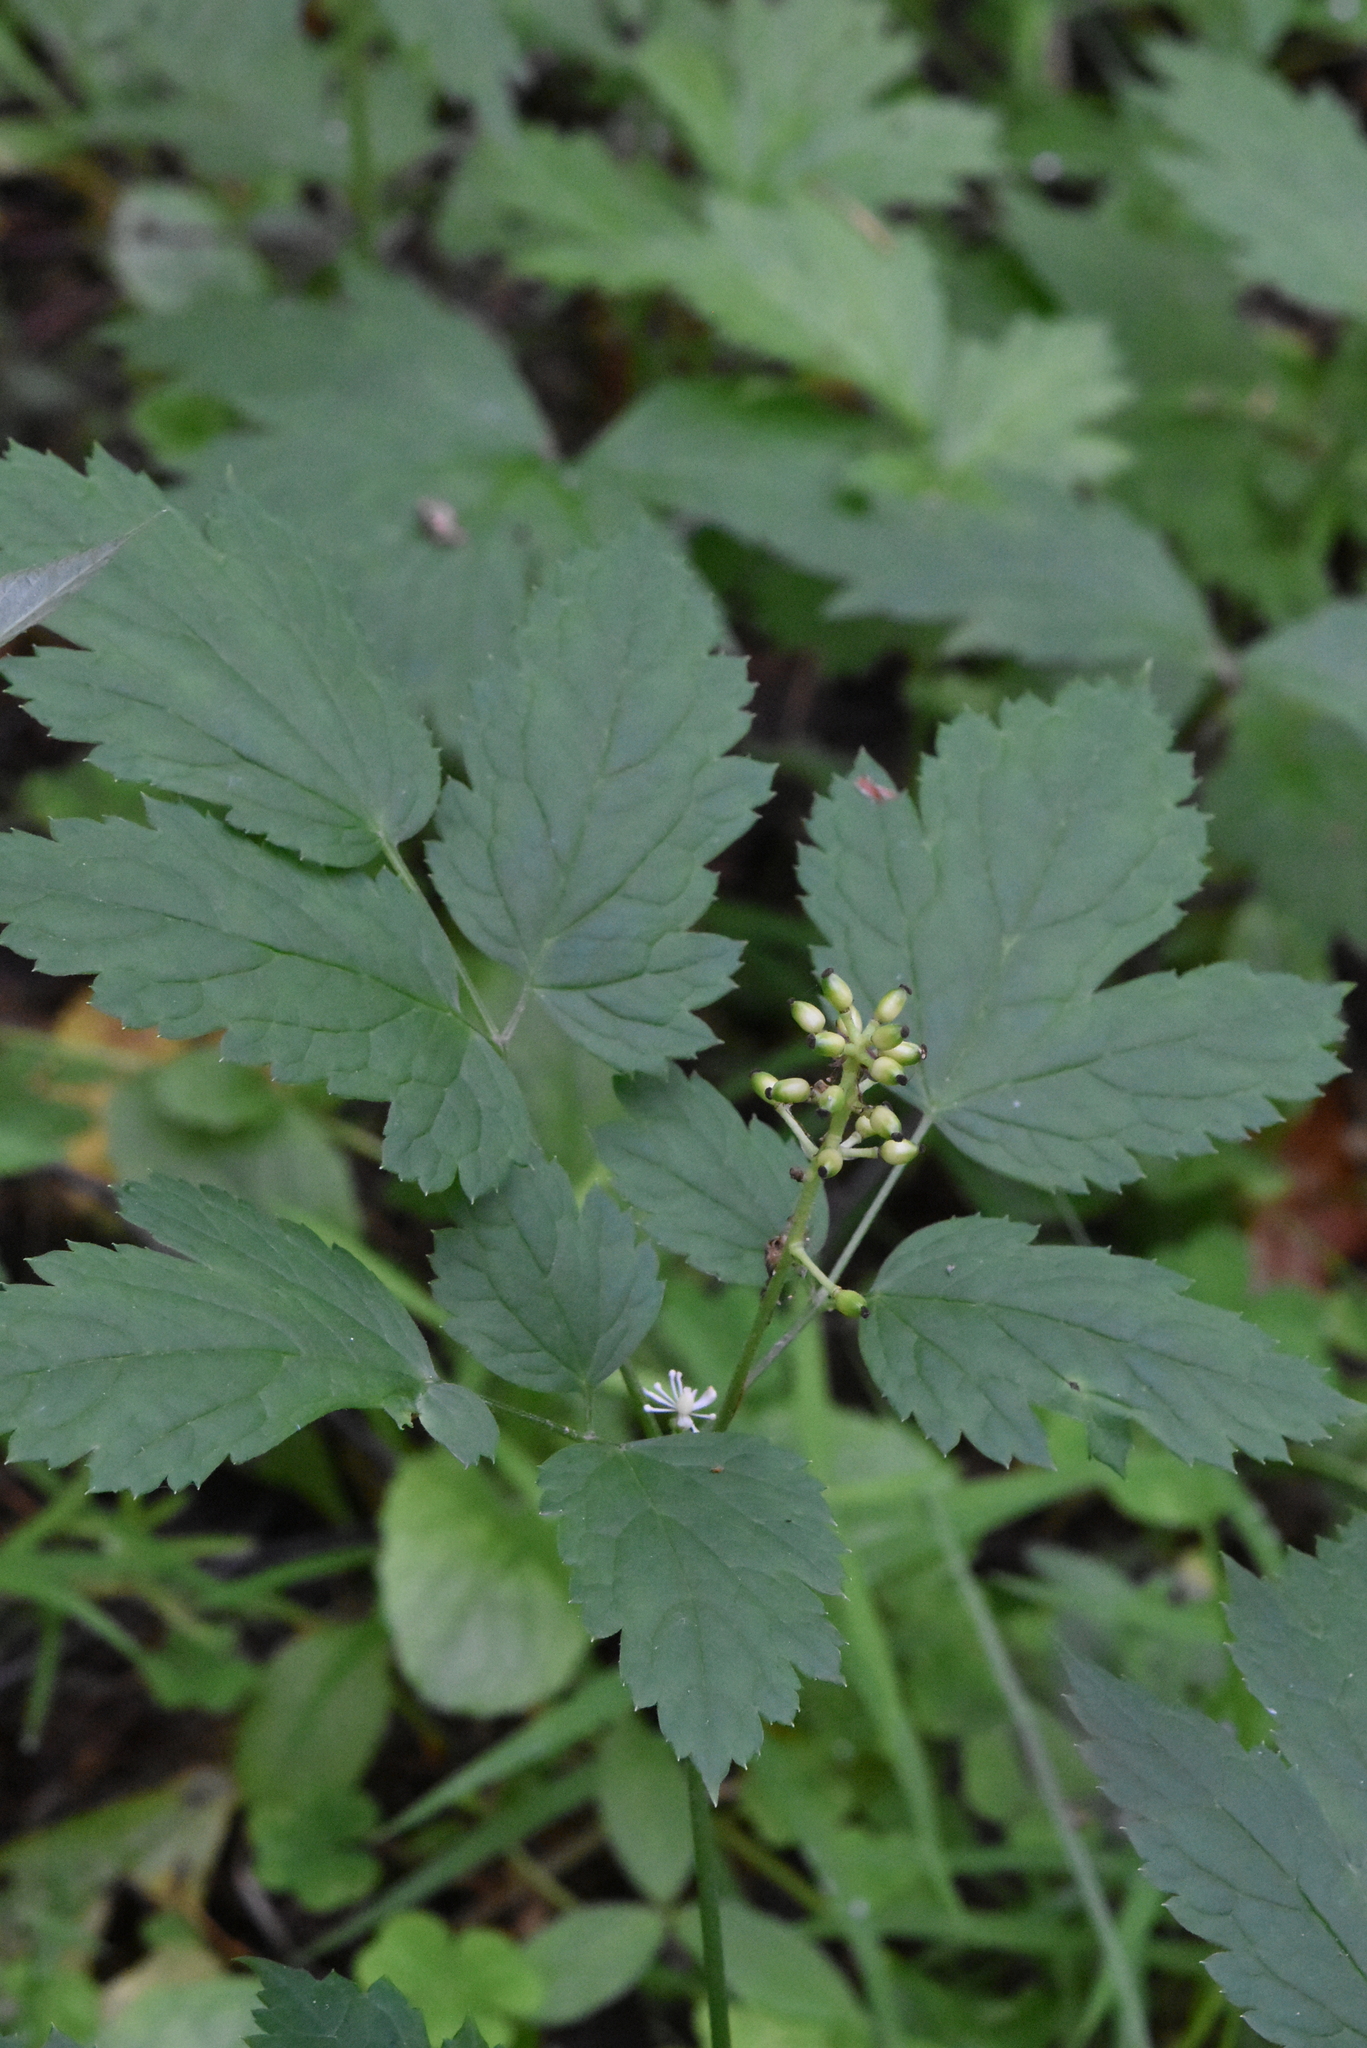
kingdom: Plantae
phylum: Tracheophyta
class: Magnoliopsida
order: Ranunculales
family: Ranunculaceae
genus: Actaea
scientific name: Actaea spicata
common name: Baneberry
